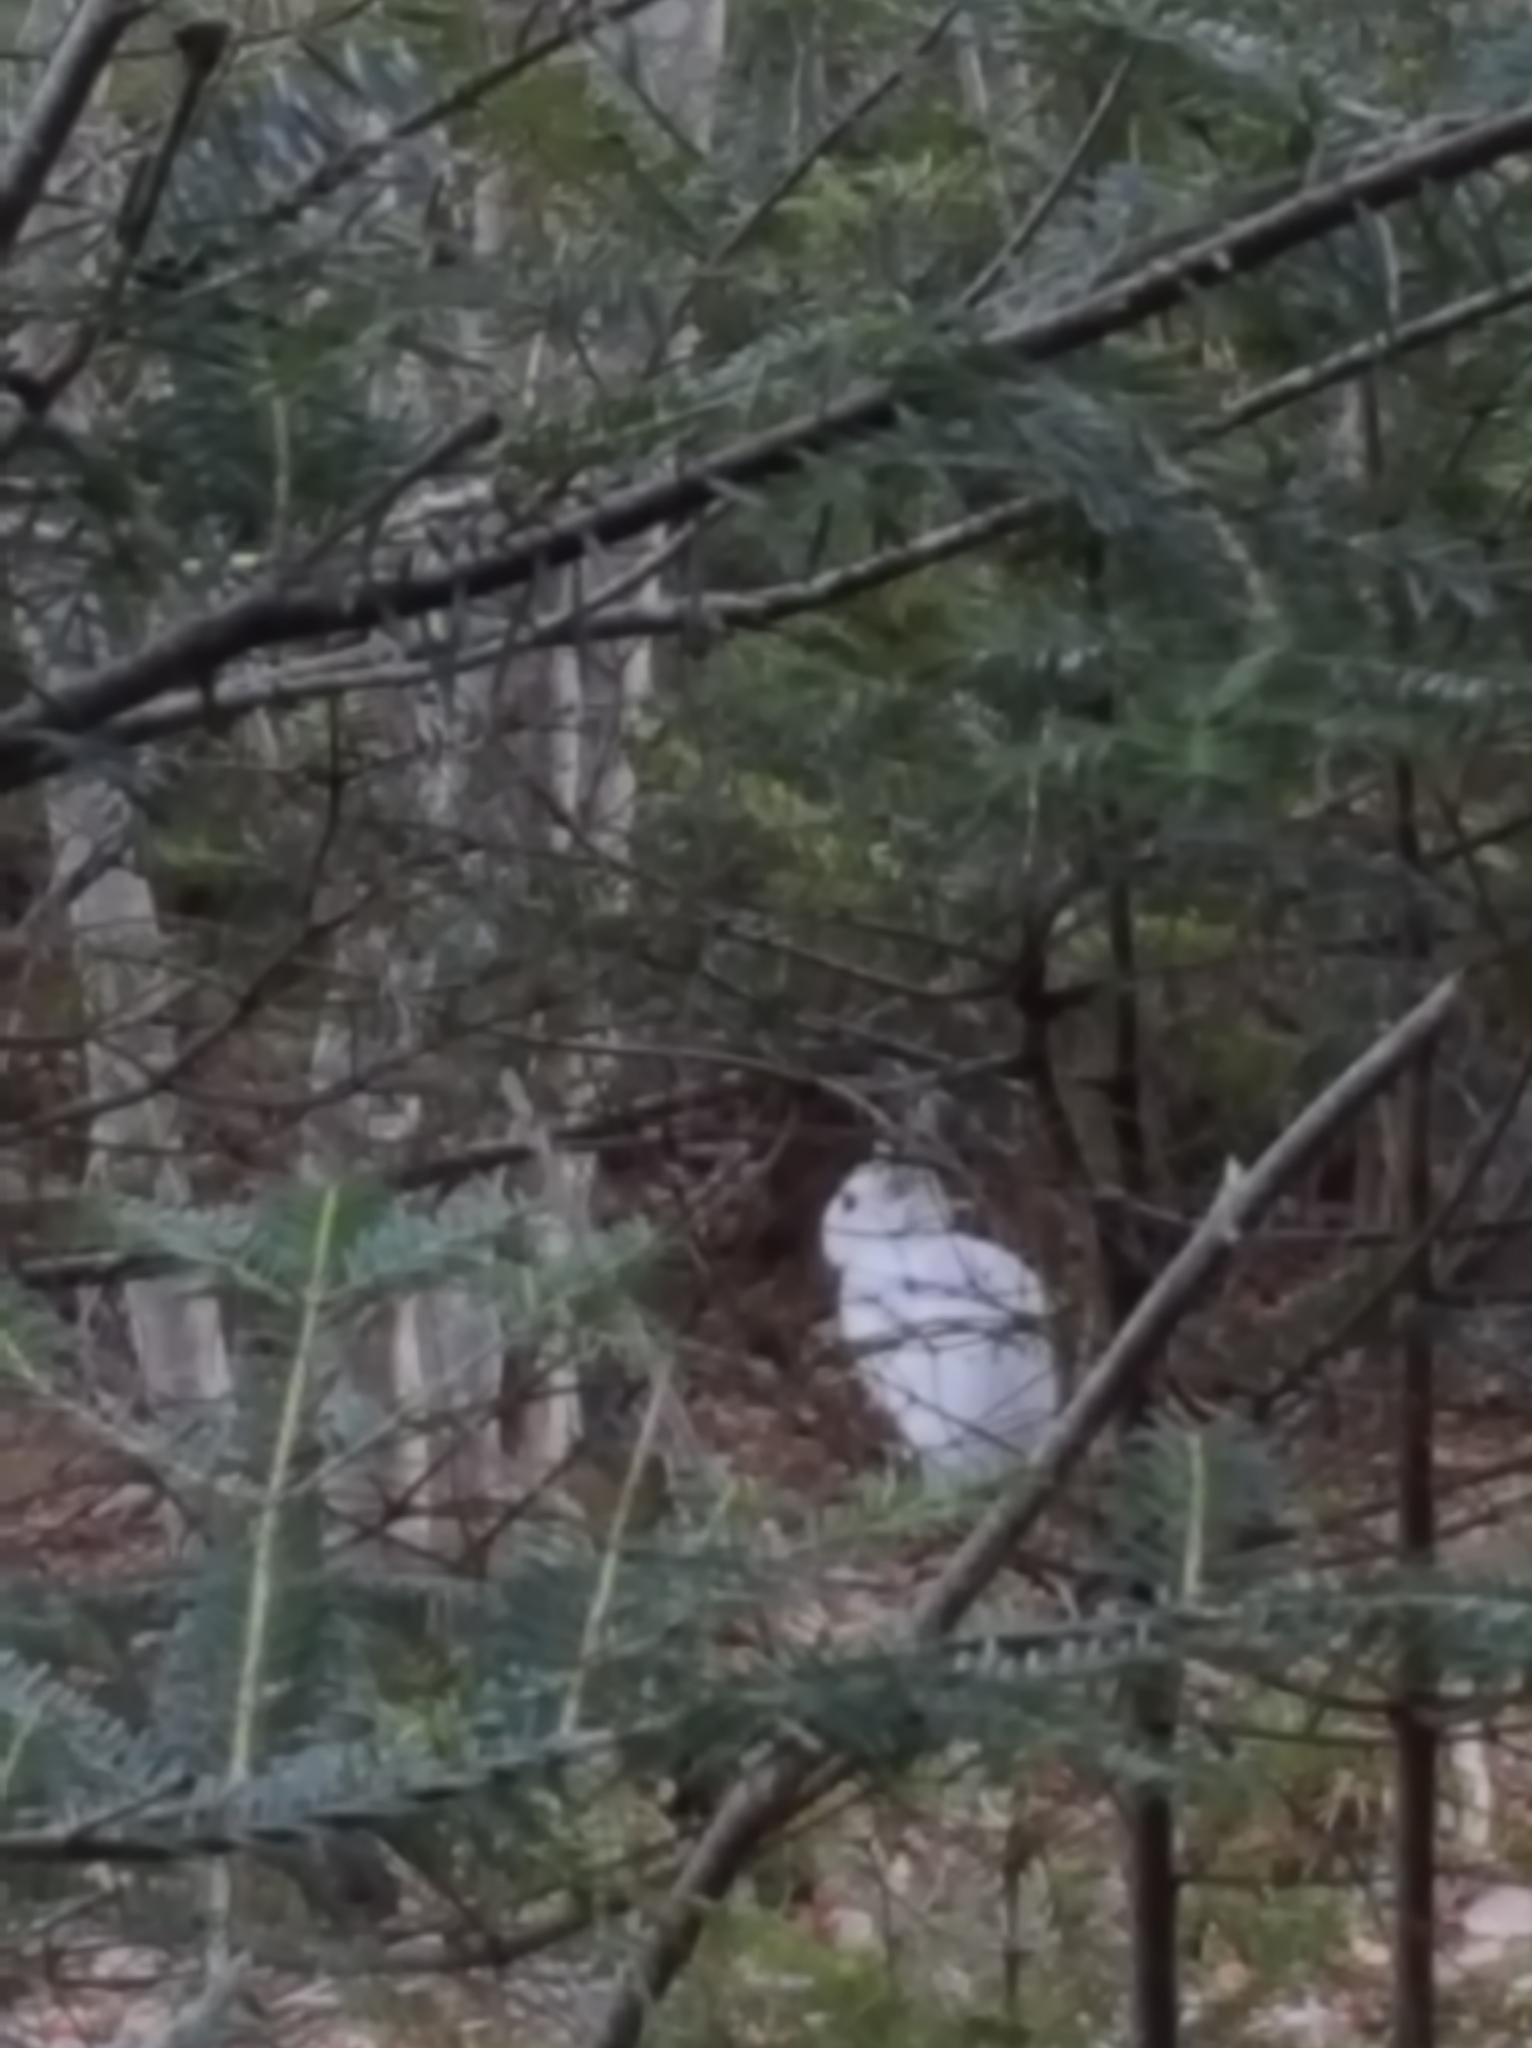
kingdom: Animalia
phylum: Chordata
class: Mammalia
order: Lagomorpha
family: Leporidae
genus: Lepus
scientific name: Lepus americanus
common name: Snowshoe hare
